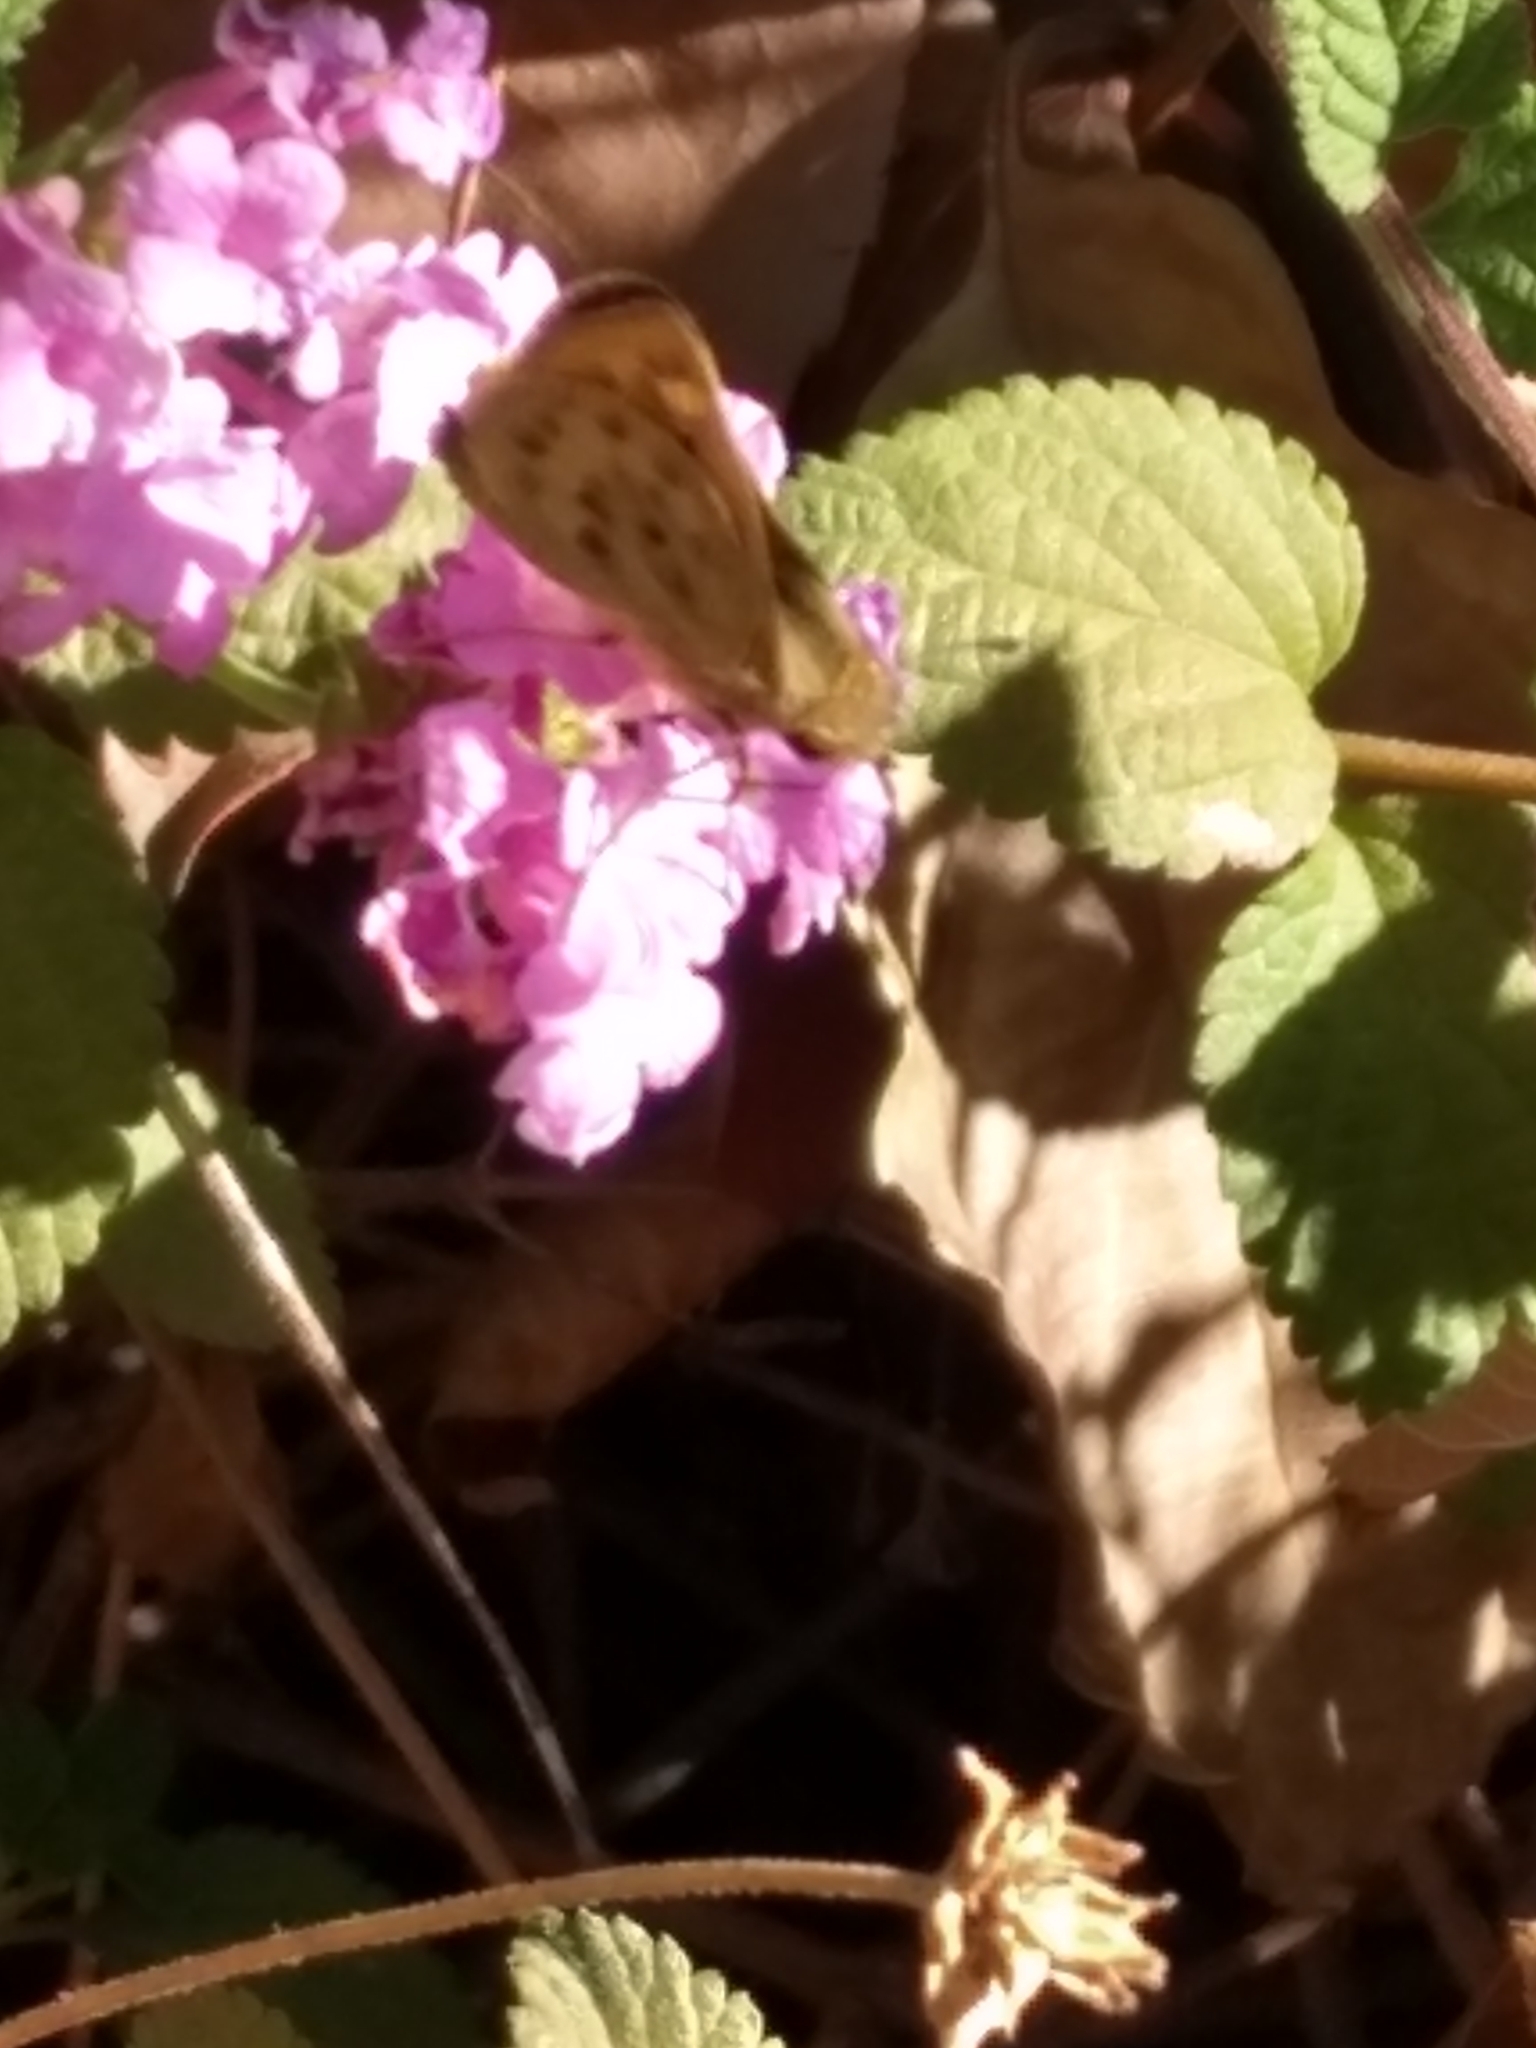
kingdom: Animalia
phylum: Arthropoda
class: Insecta
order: Lepidoptera
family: Hesperiidae
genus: Hylephila
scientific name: Hylephila phyleus
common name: Fiery skipper
